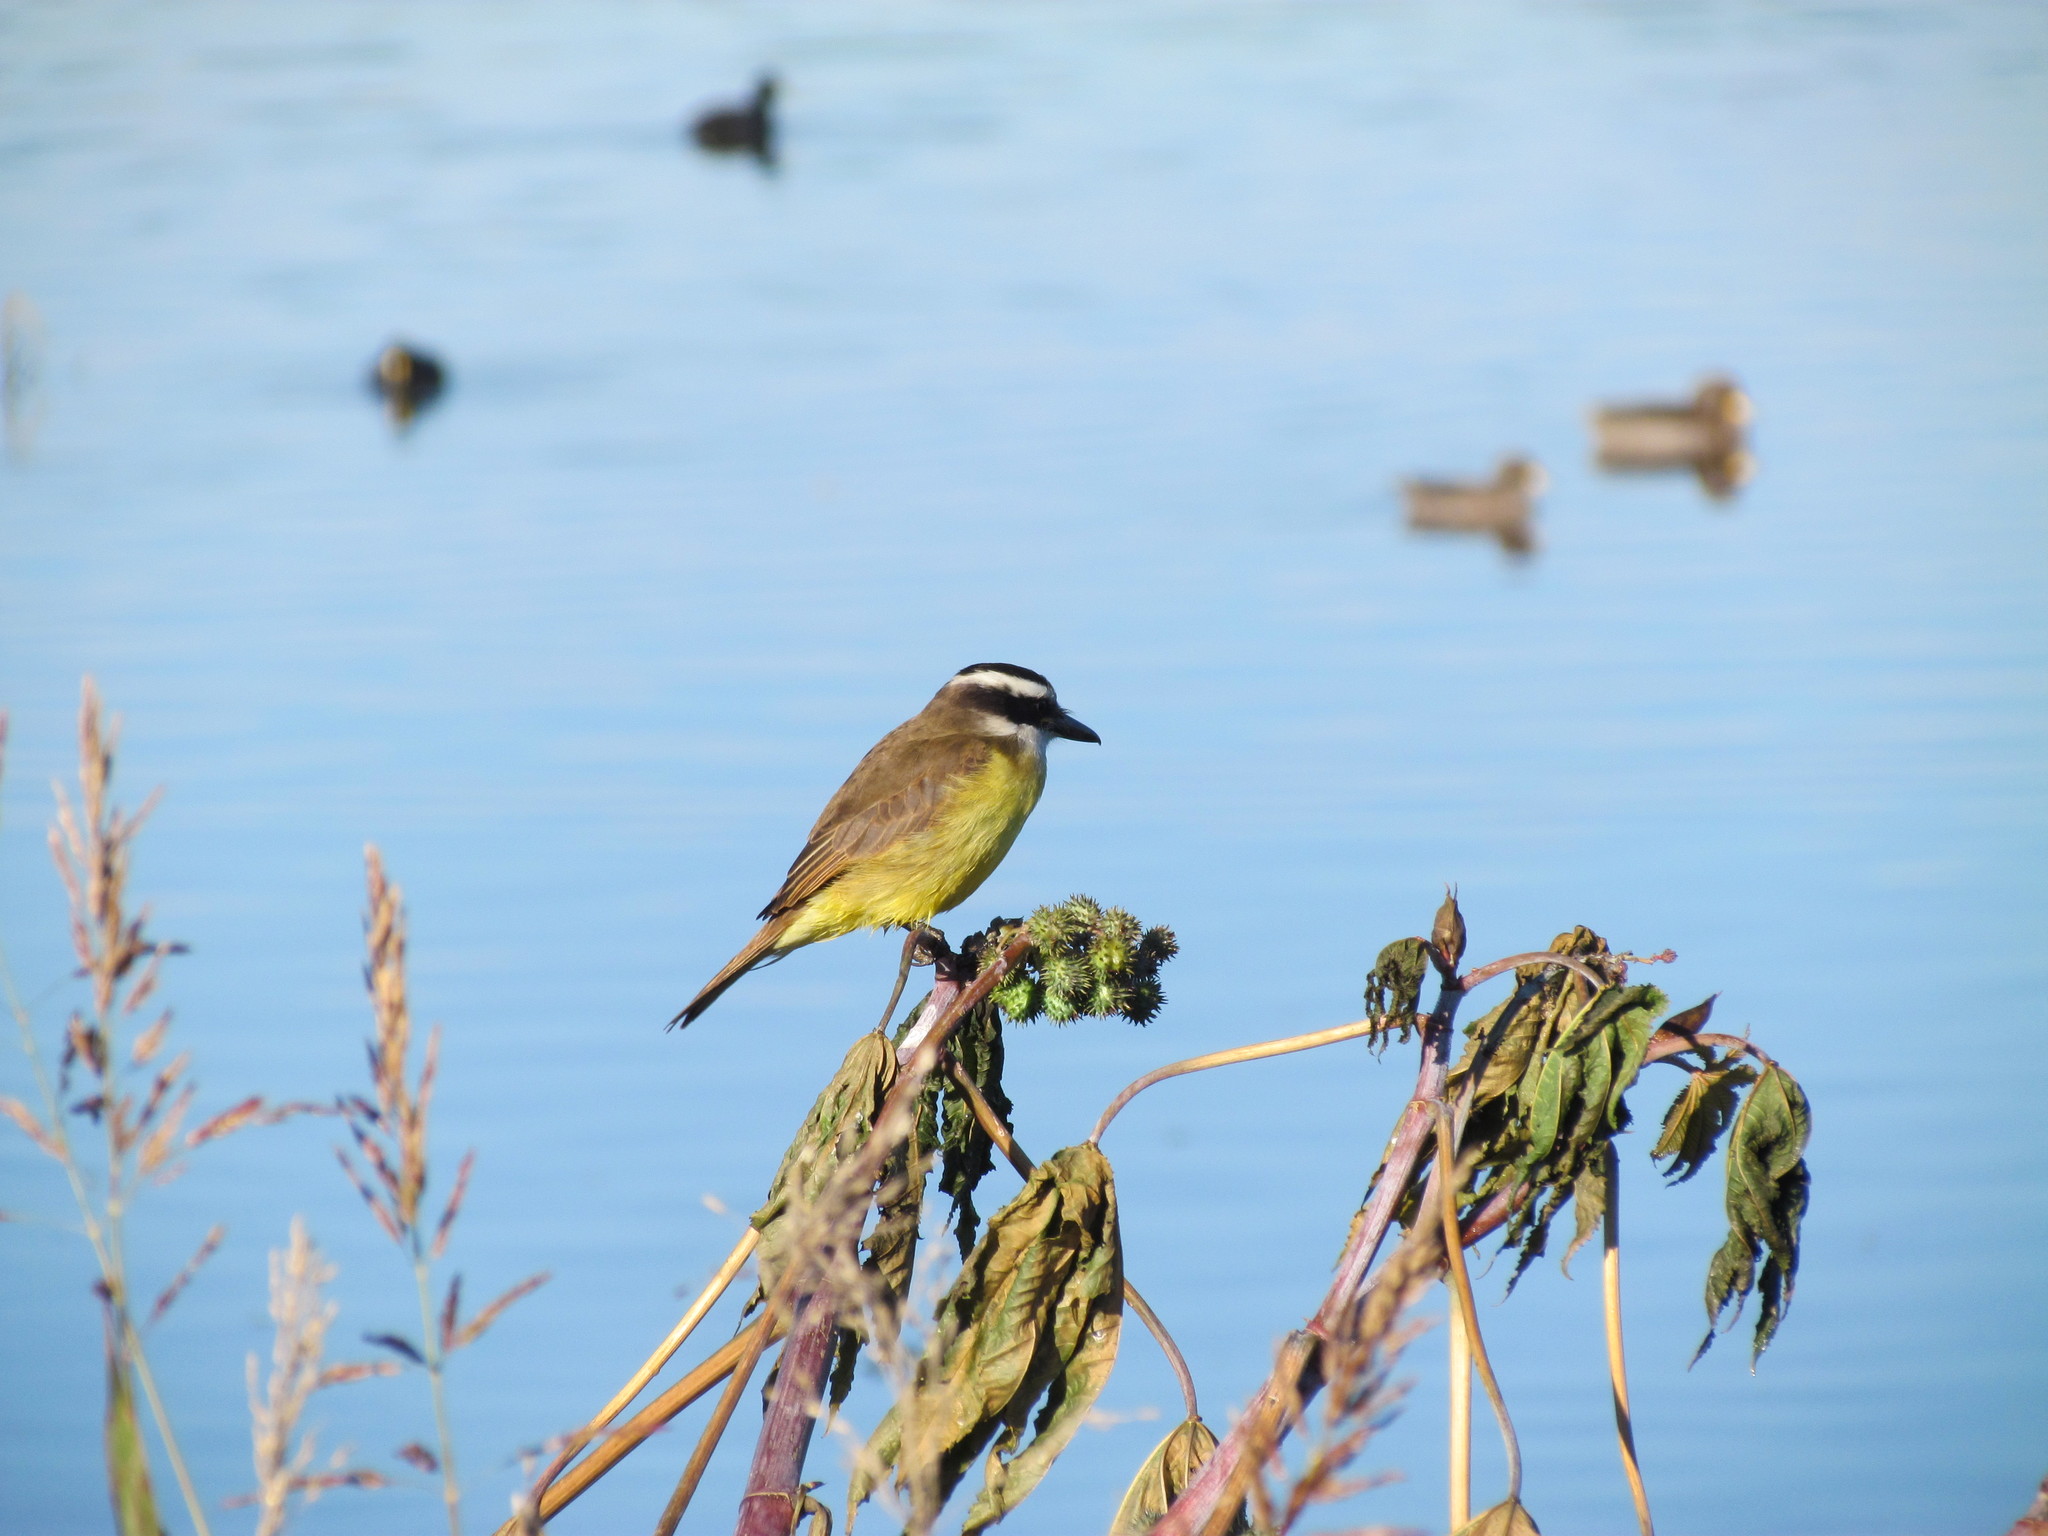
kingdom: Animalia
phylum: Chordata
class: Aves
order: Passeriformes
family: Tyrannidae
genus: Pitangus
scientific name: Pitangus sulphuratus
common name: Great kiskadee
